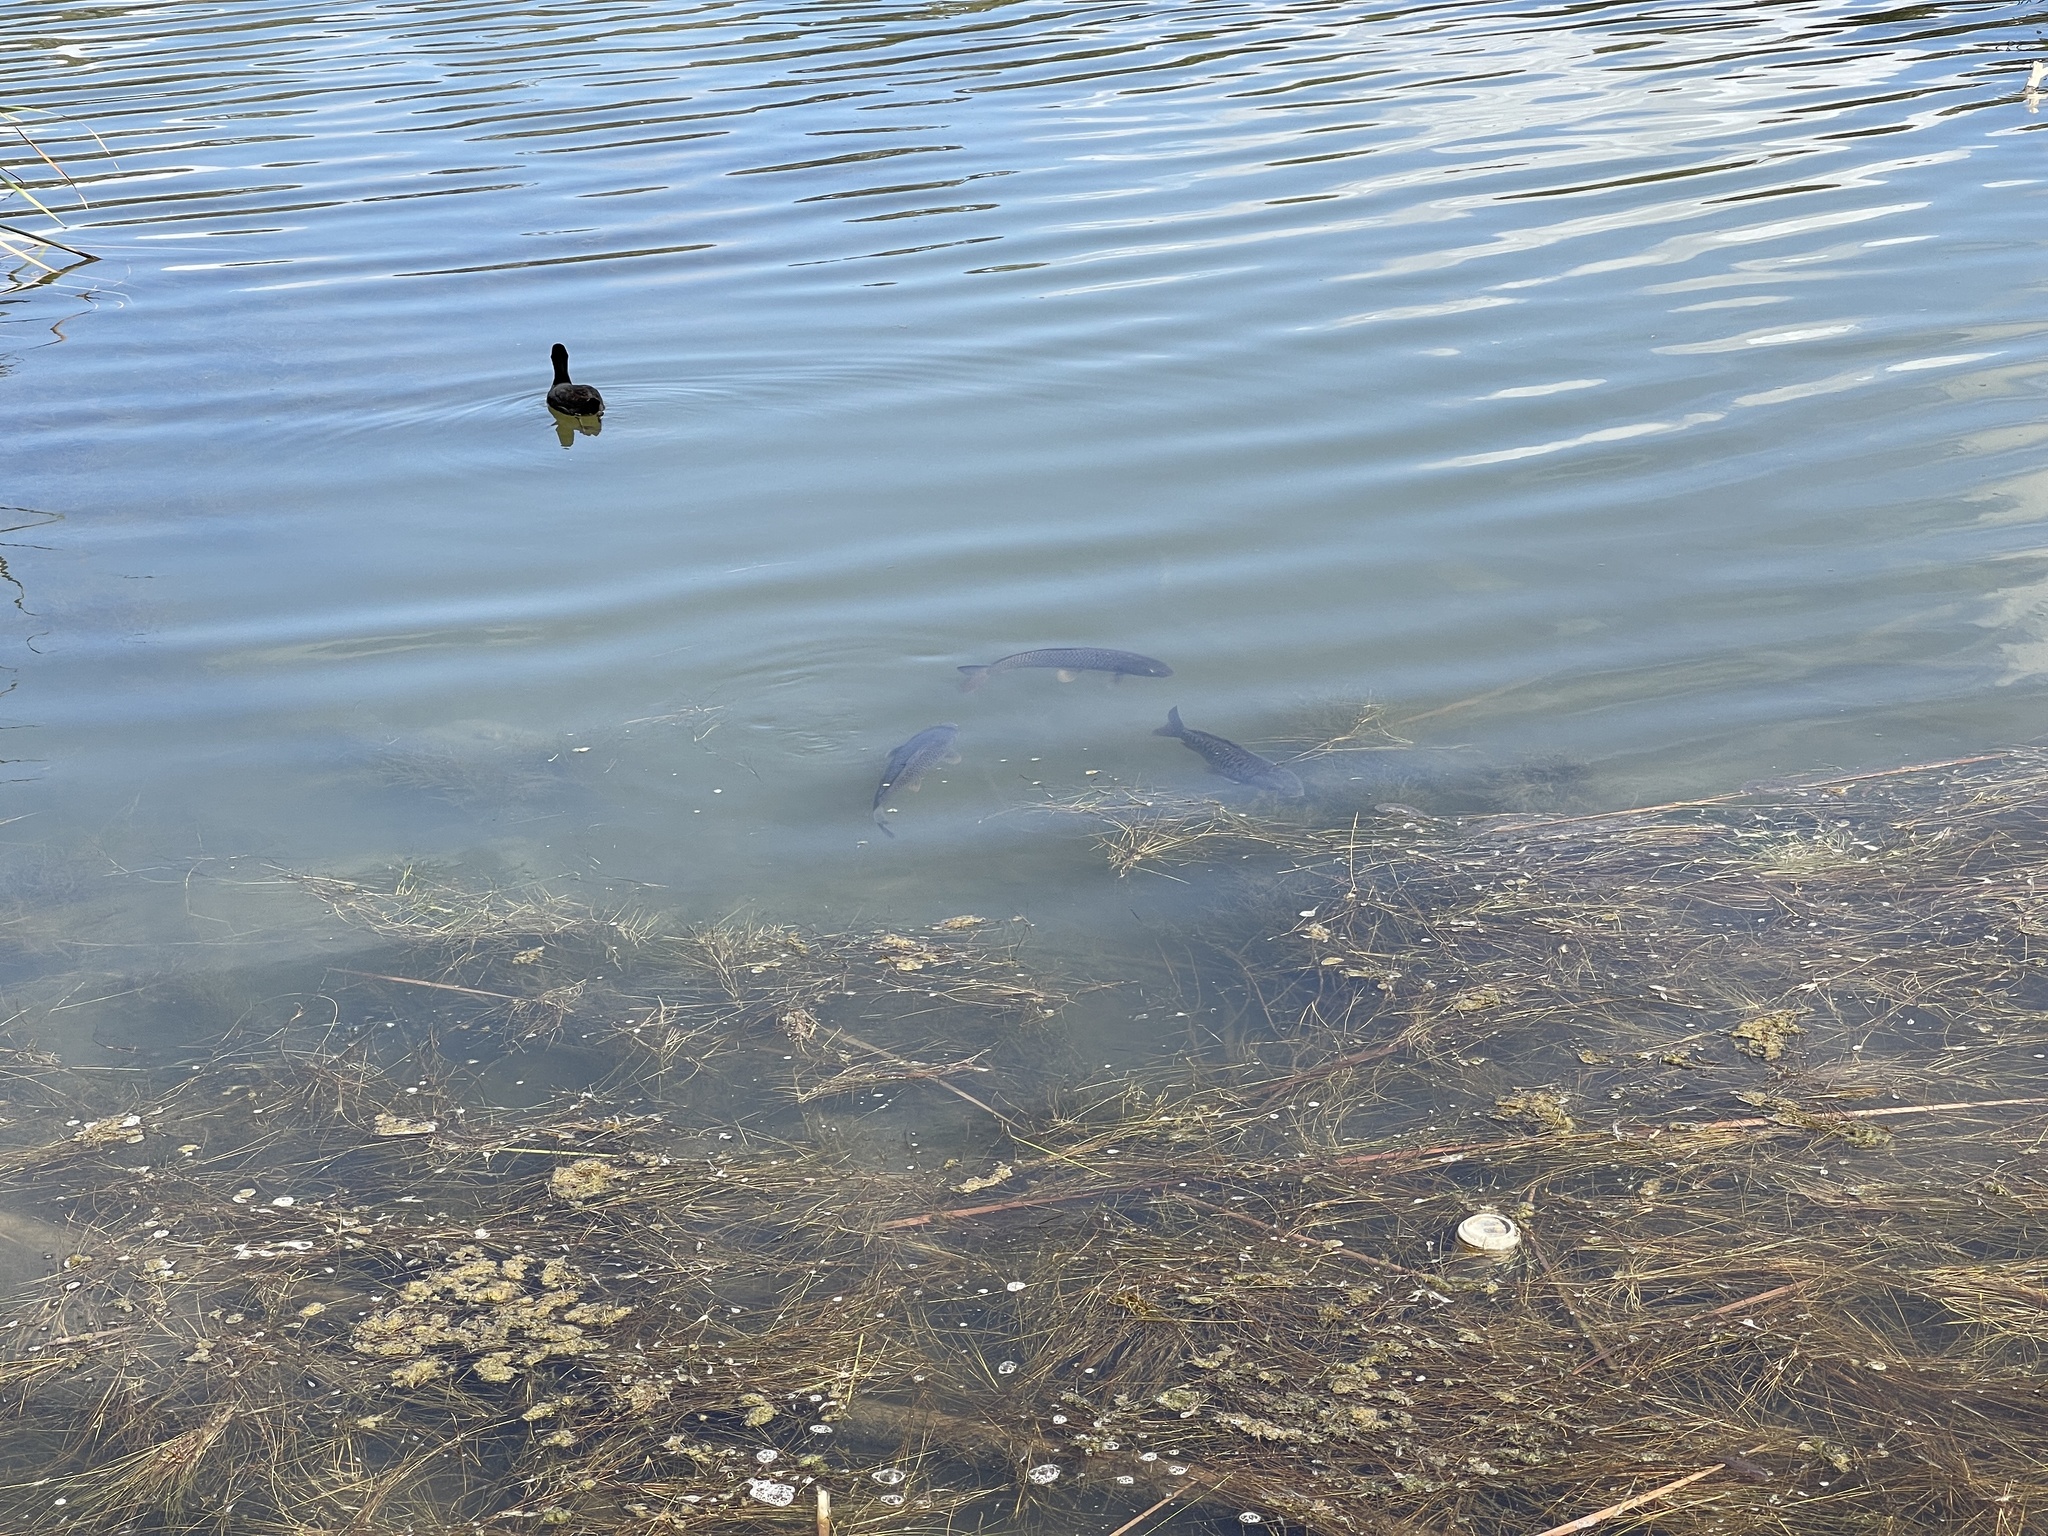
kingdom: Animalia
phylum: Chordata
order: Cypriniformes
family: Cyprinidae
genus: Cyprinus
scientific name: Cyprinus carpio
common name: Common carp
